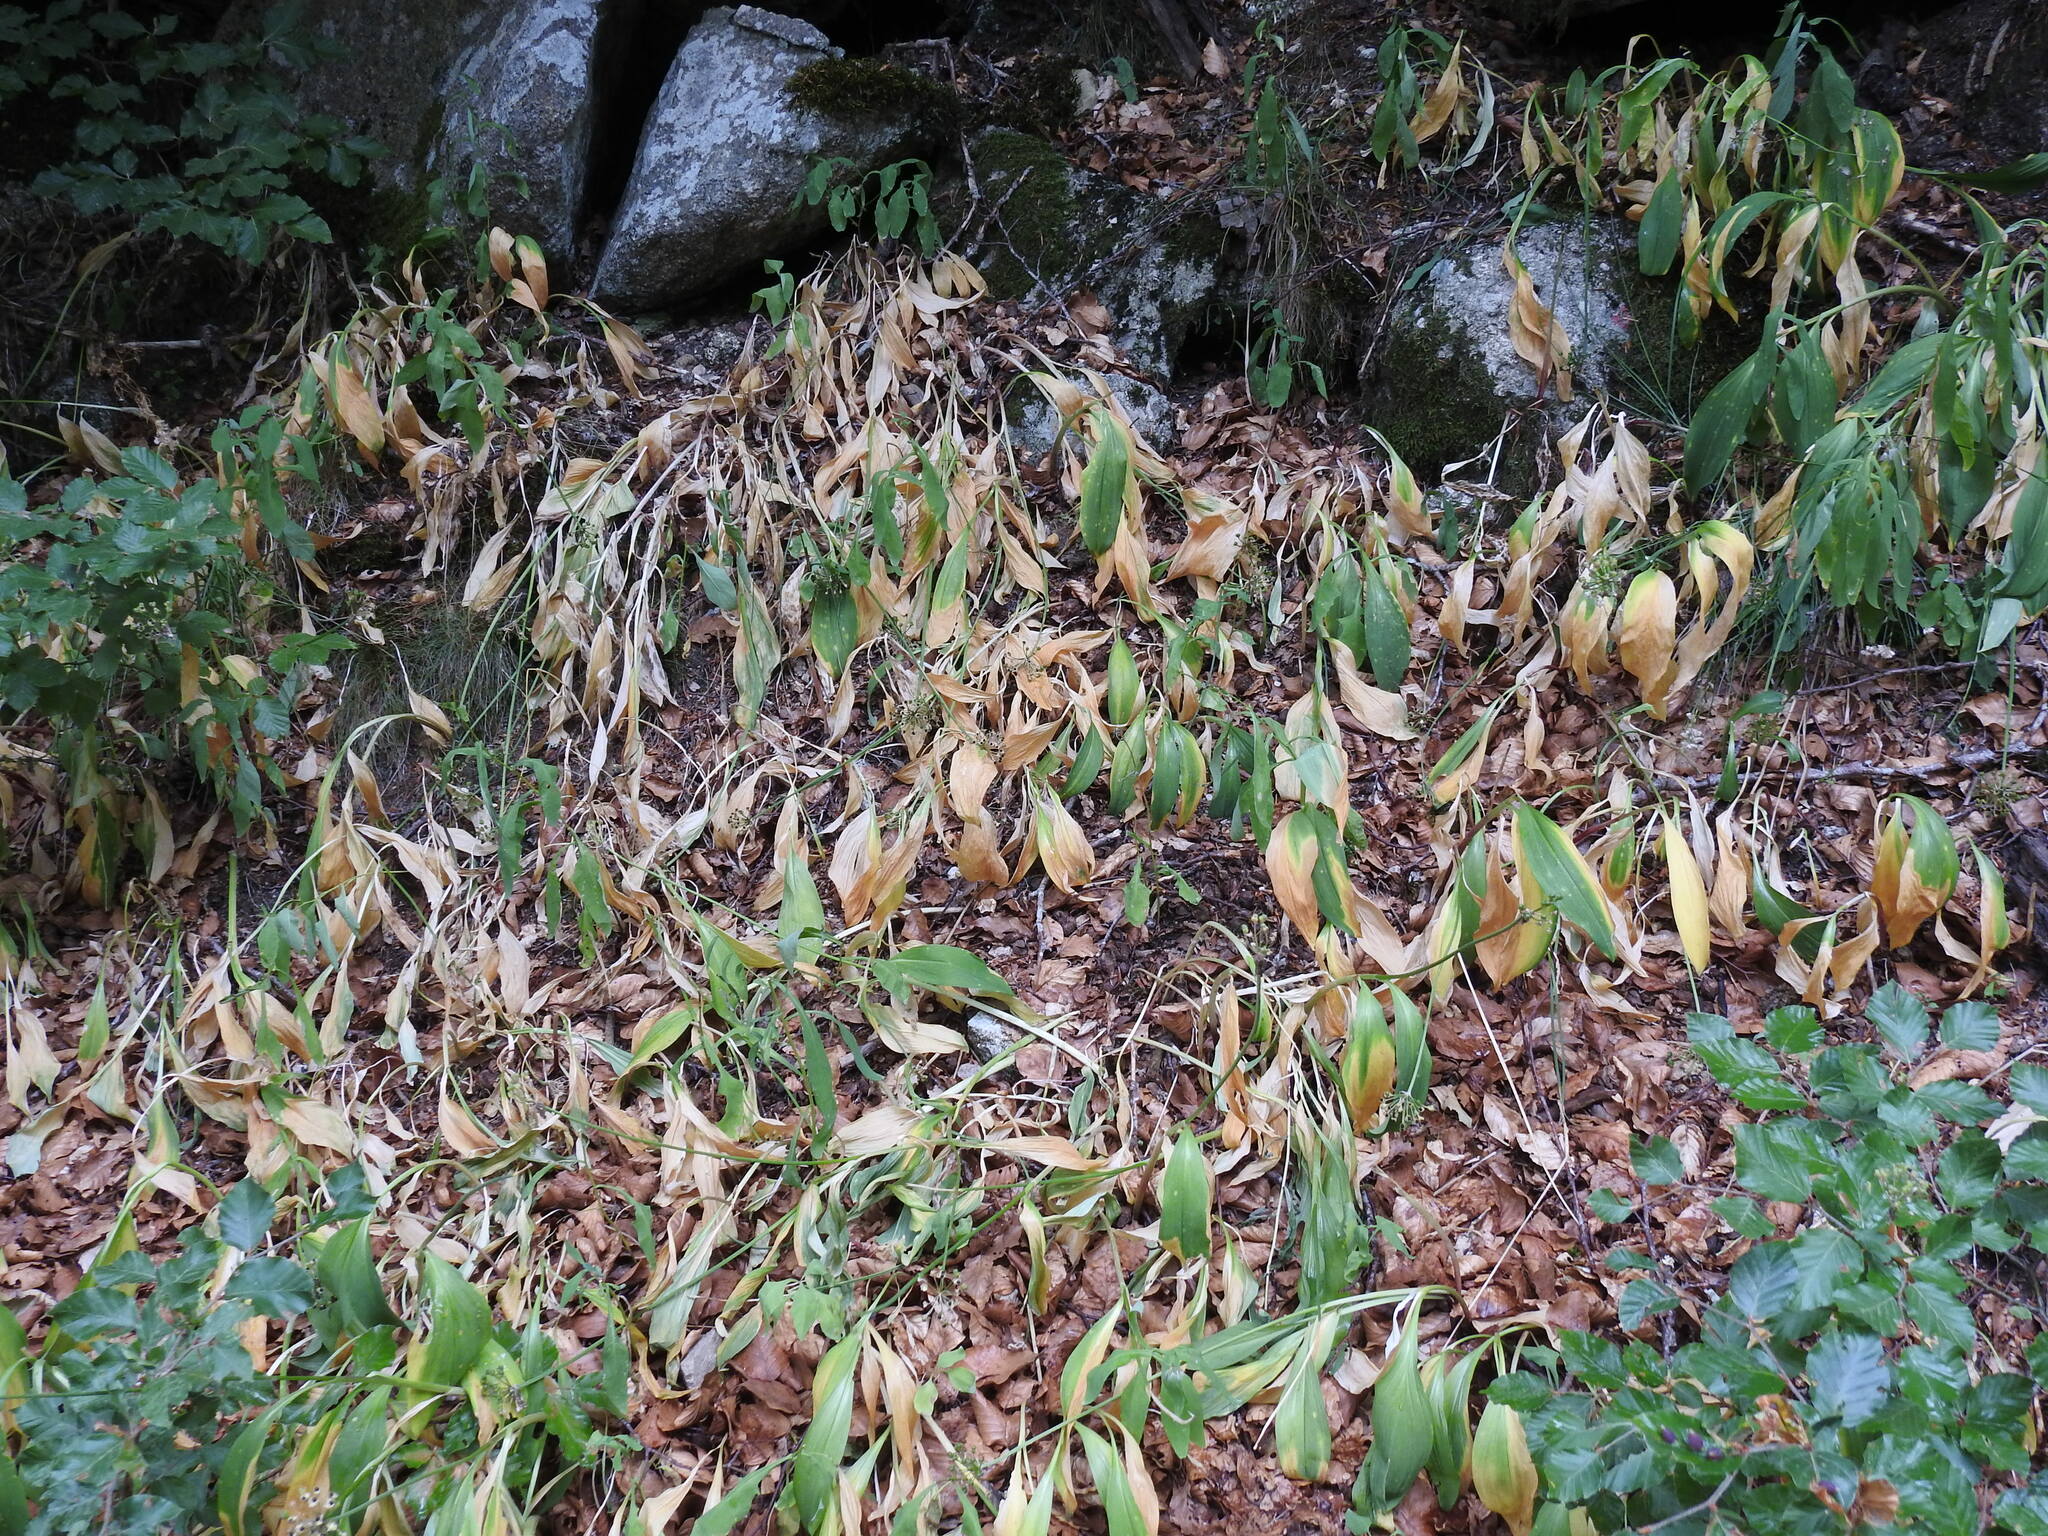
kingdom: Plantae
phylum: Tracheophyta
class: Liliopsida
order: Asparagales
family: Amaryllidaceae
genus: Allium
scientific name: Allium ursinum
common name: Ramsons
